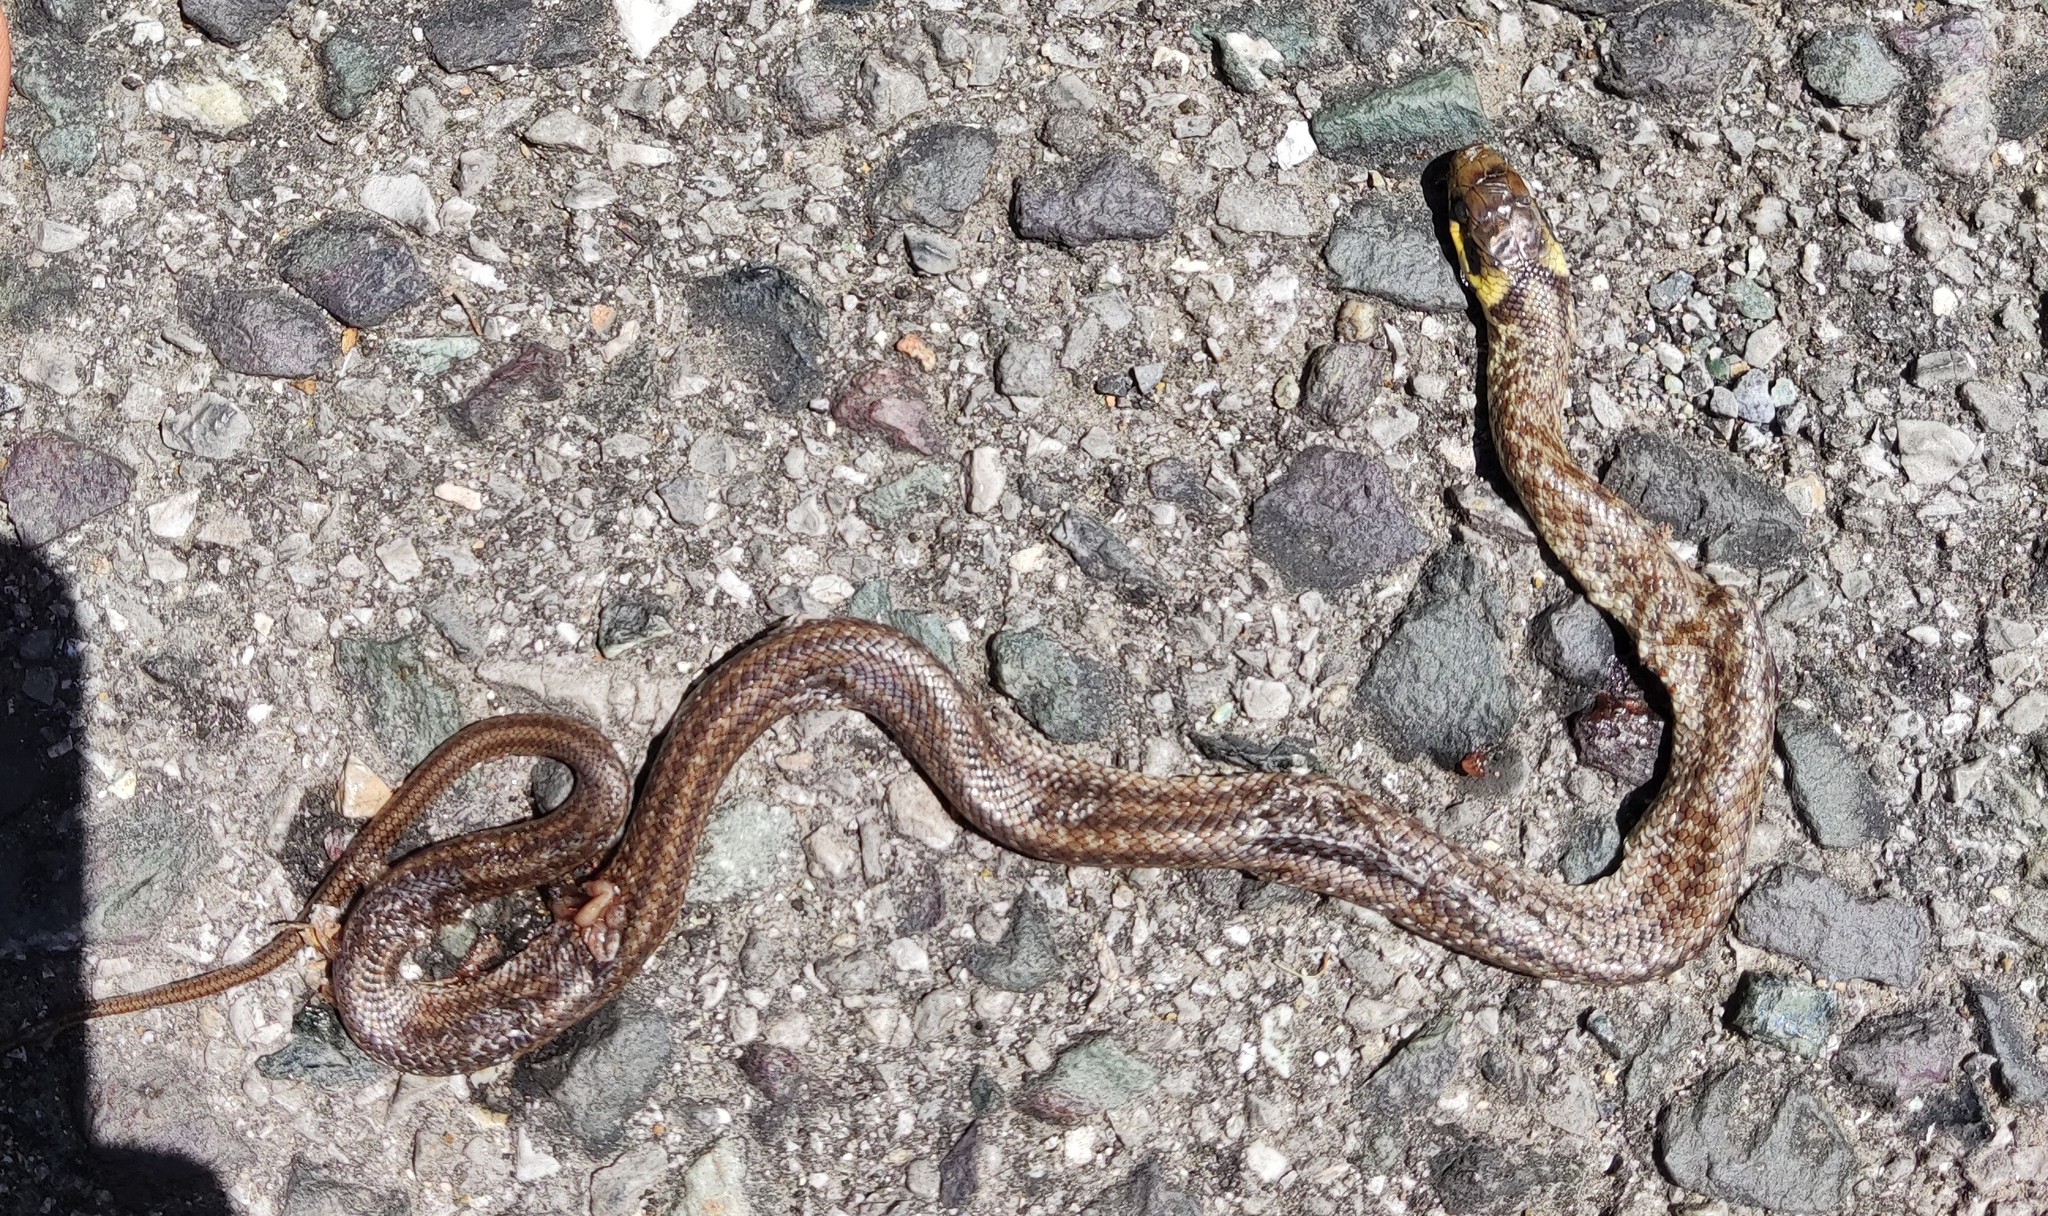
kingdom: Animalia
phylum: Chordata
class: Squamata
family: Colubridae
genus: Zamenis
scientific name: Zamenis longissimus
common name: Aesculapean snake
